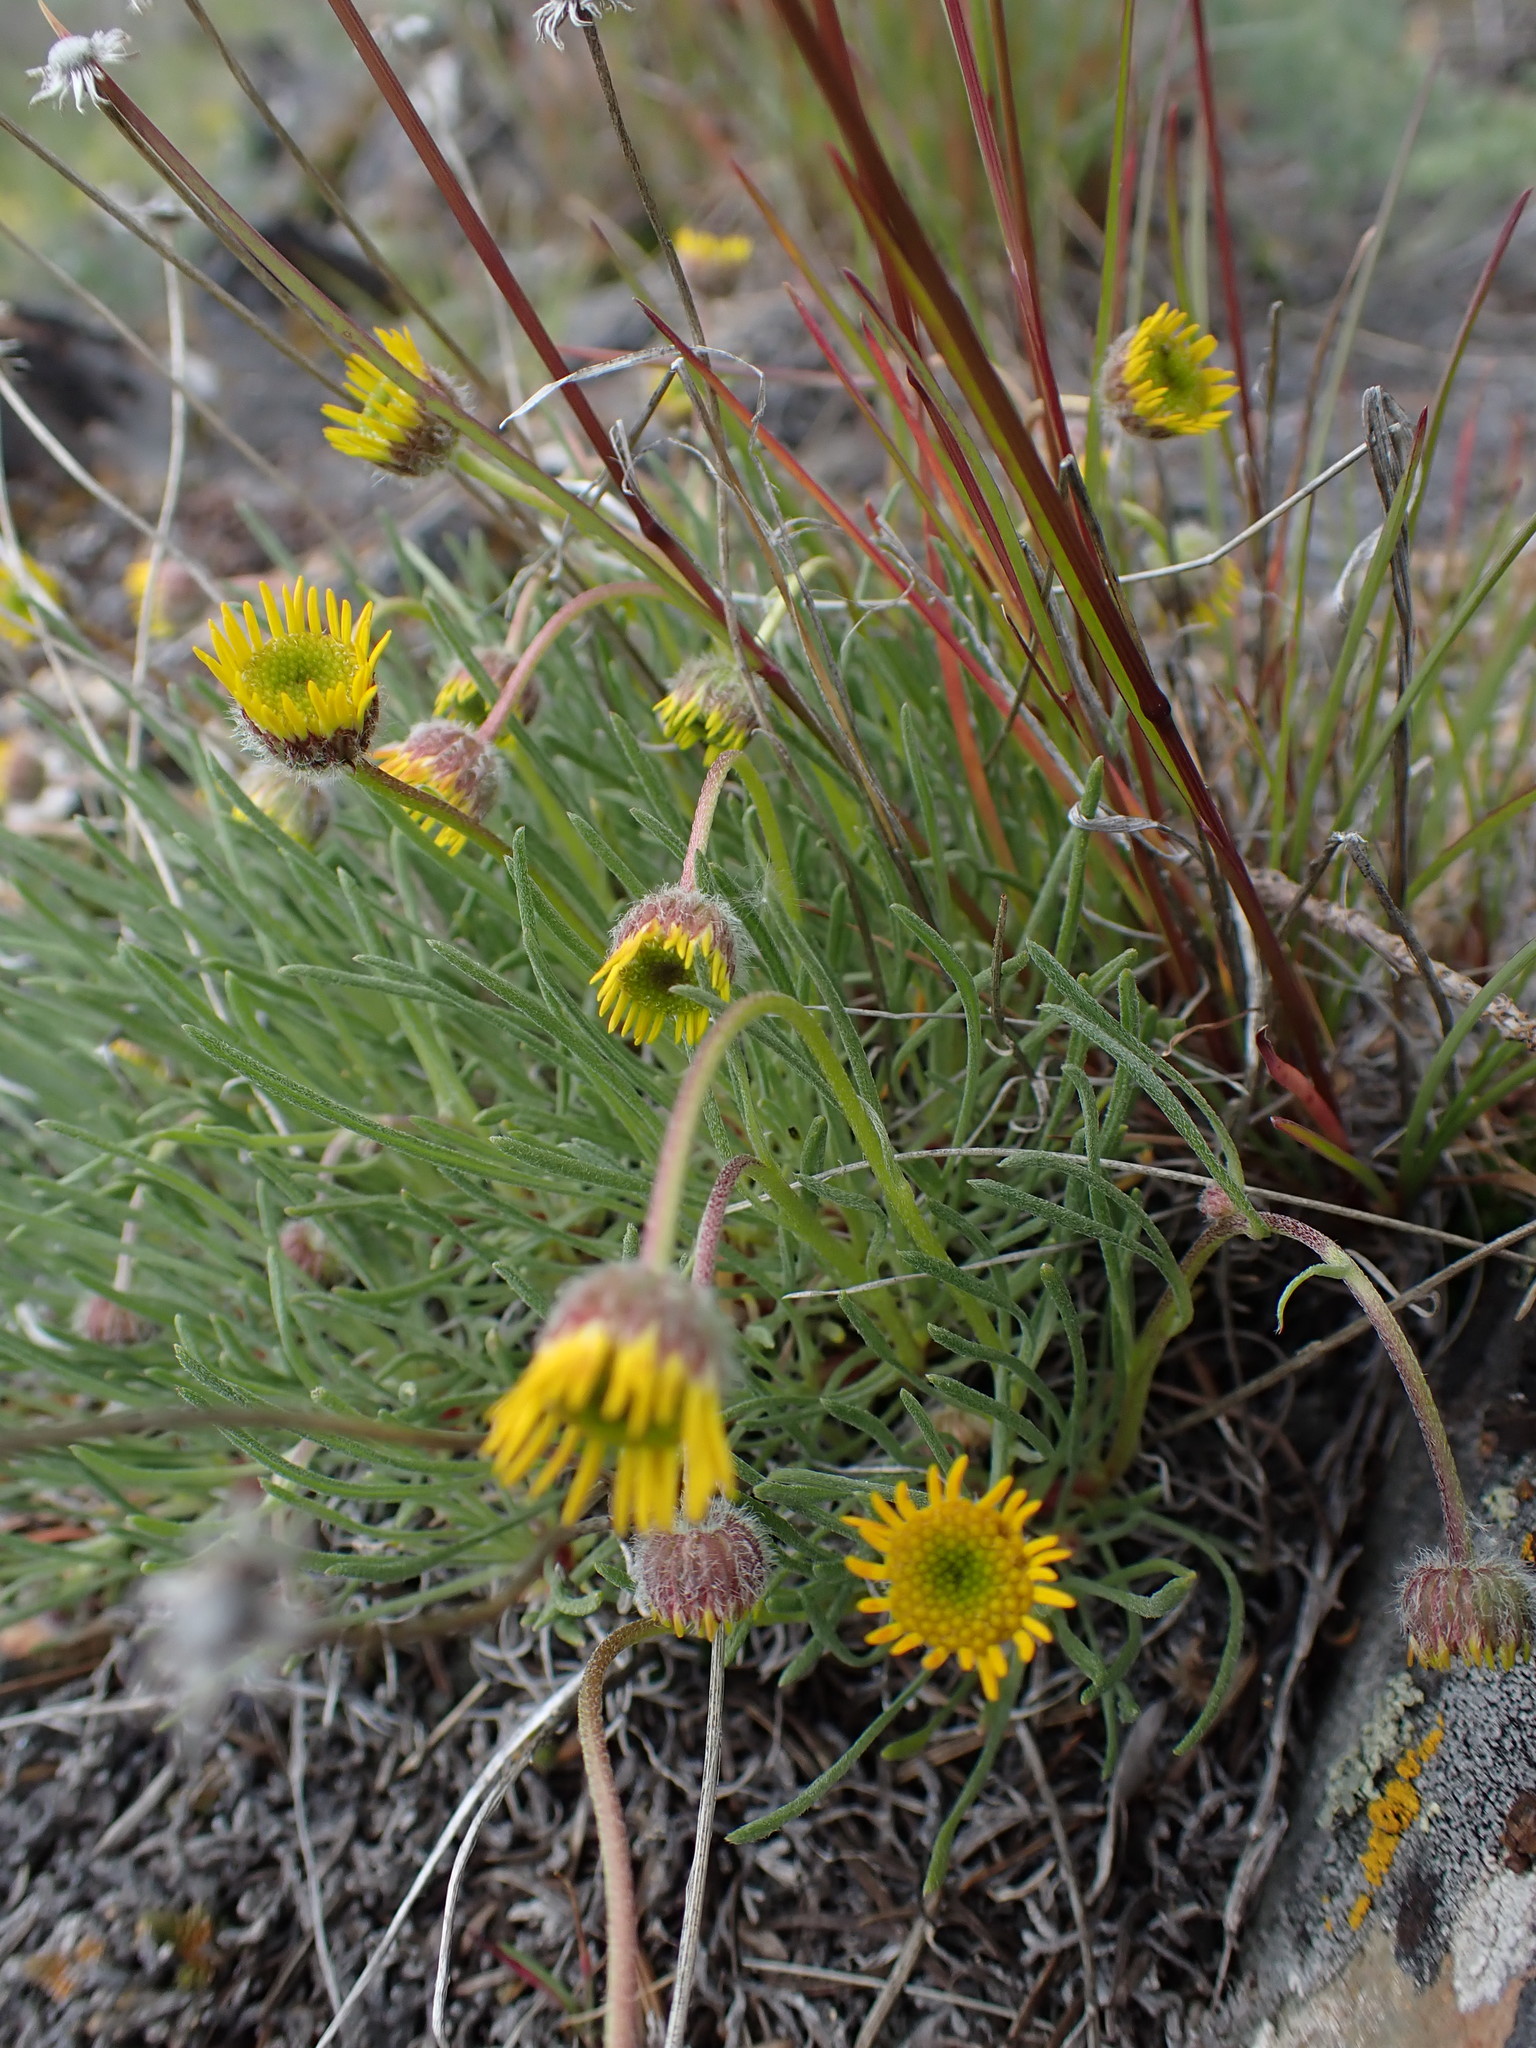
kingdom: Plantae
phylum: Tracheophyta
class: Magnoliopsida
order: Asterales
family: Asteraceae
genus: Erigeron
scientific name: Erigeron linearis
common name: Desert yellow fleabane
